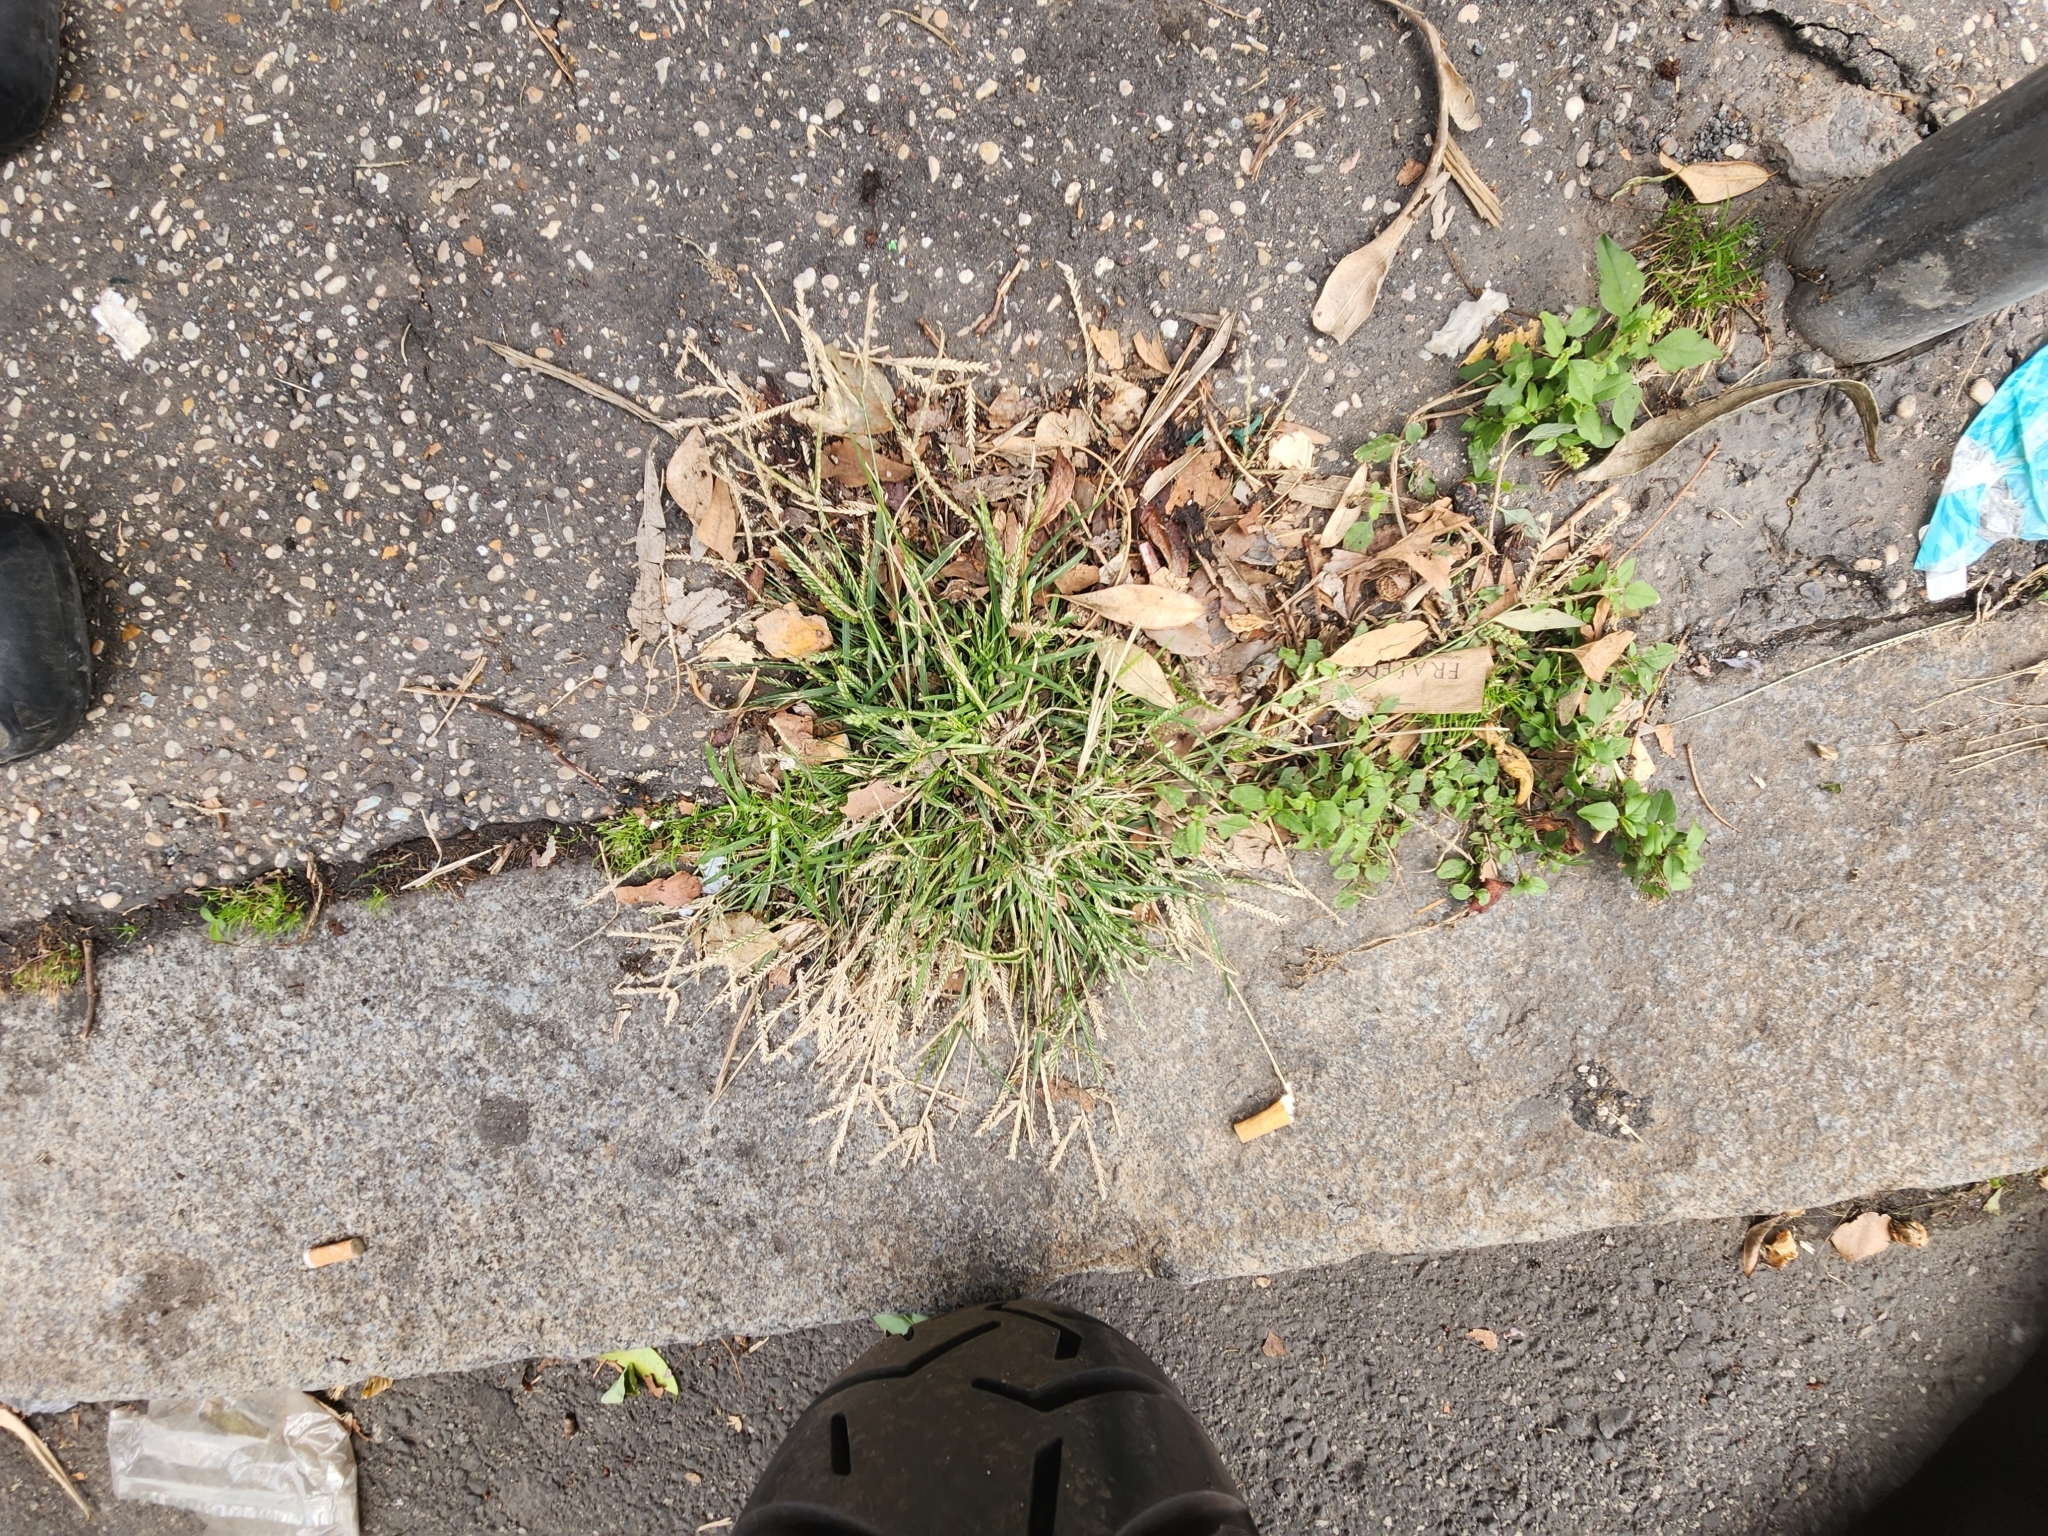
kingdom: Plantae
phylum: Tracheophyta
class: Liliopsida
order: Poales
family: Poaceae
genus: Eleusine
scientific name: Eleusine indica
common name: Yard-grass
